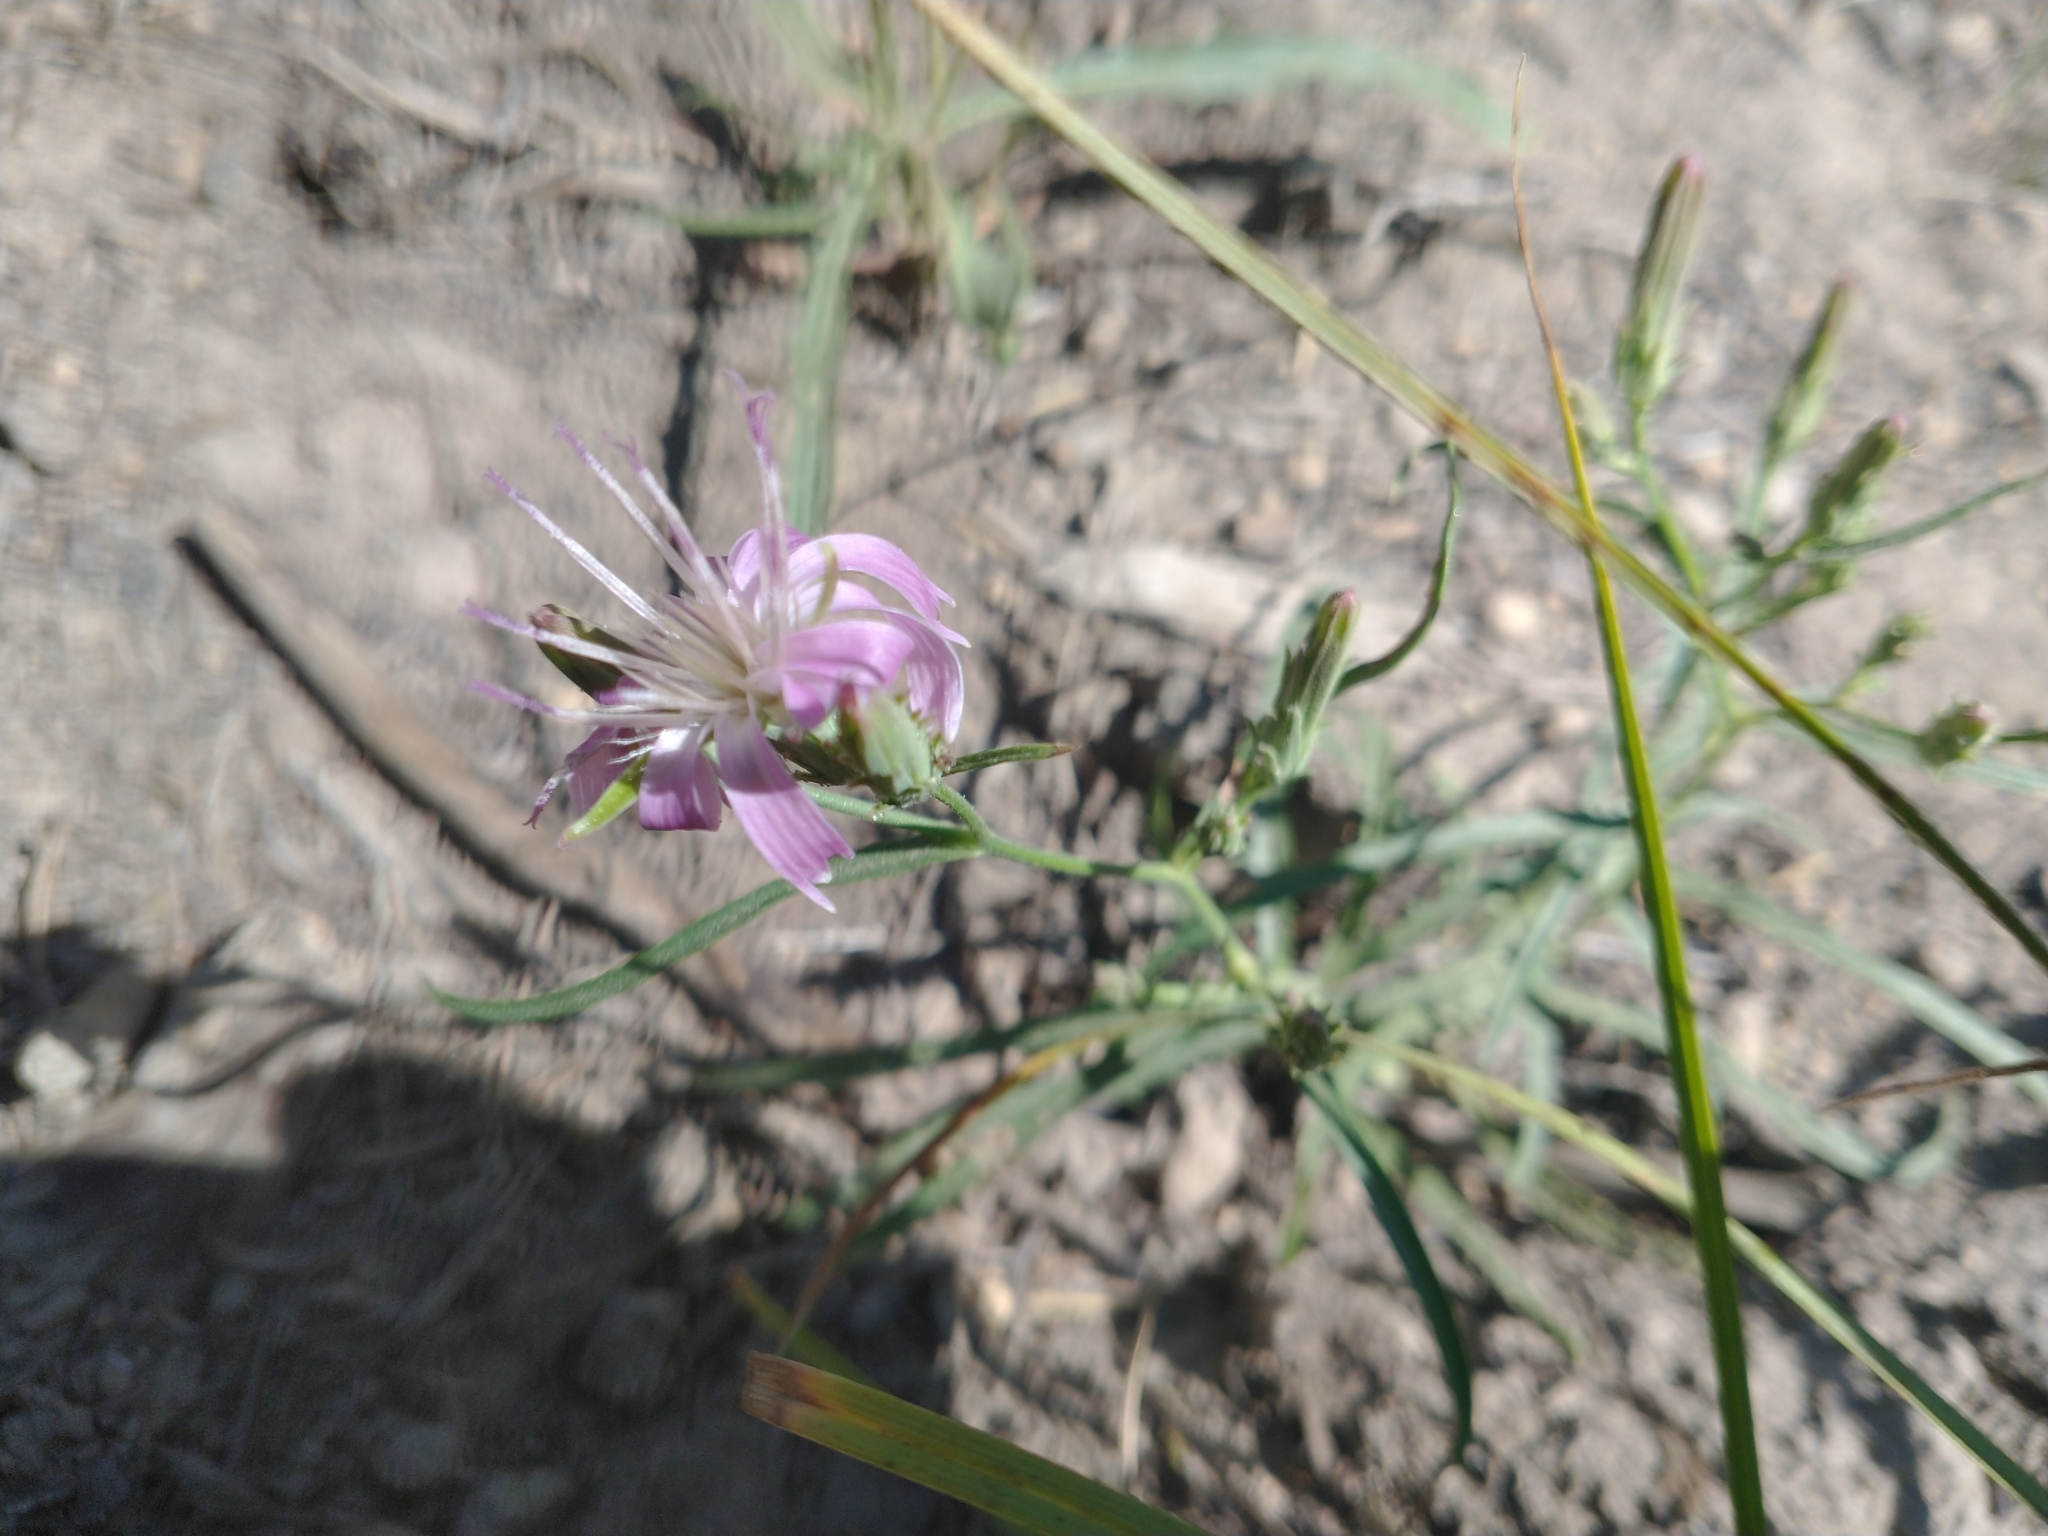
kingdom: Plantae
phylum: Tracheophyta
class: Magnoliopsida
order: Asterales
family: Asteraceae
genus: Stephanomeria
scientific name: Stephanomeria lactucina
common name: Large-flowered wirelettuce
